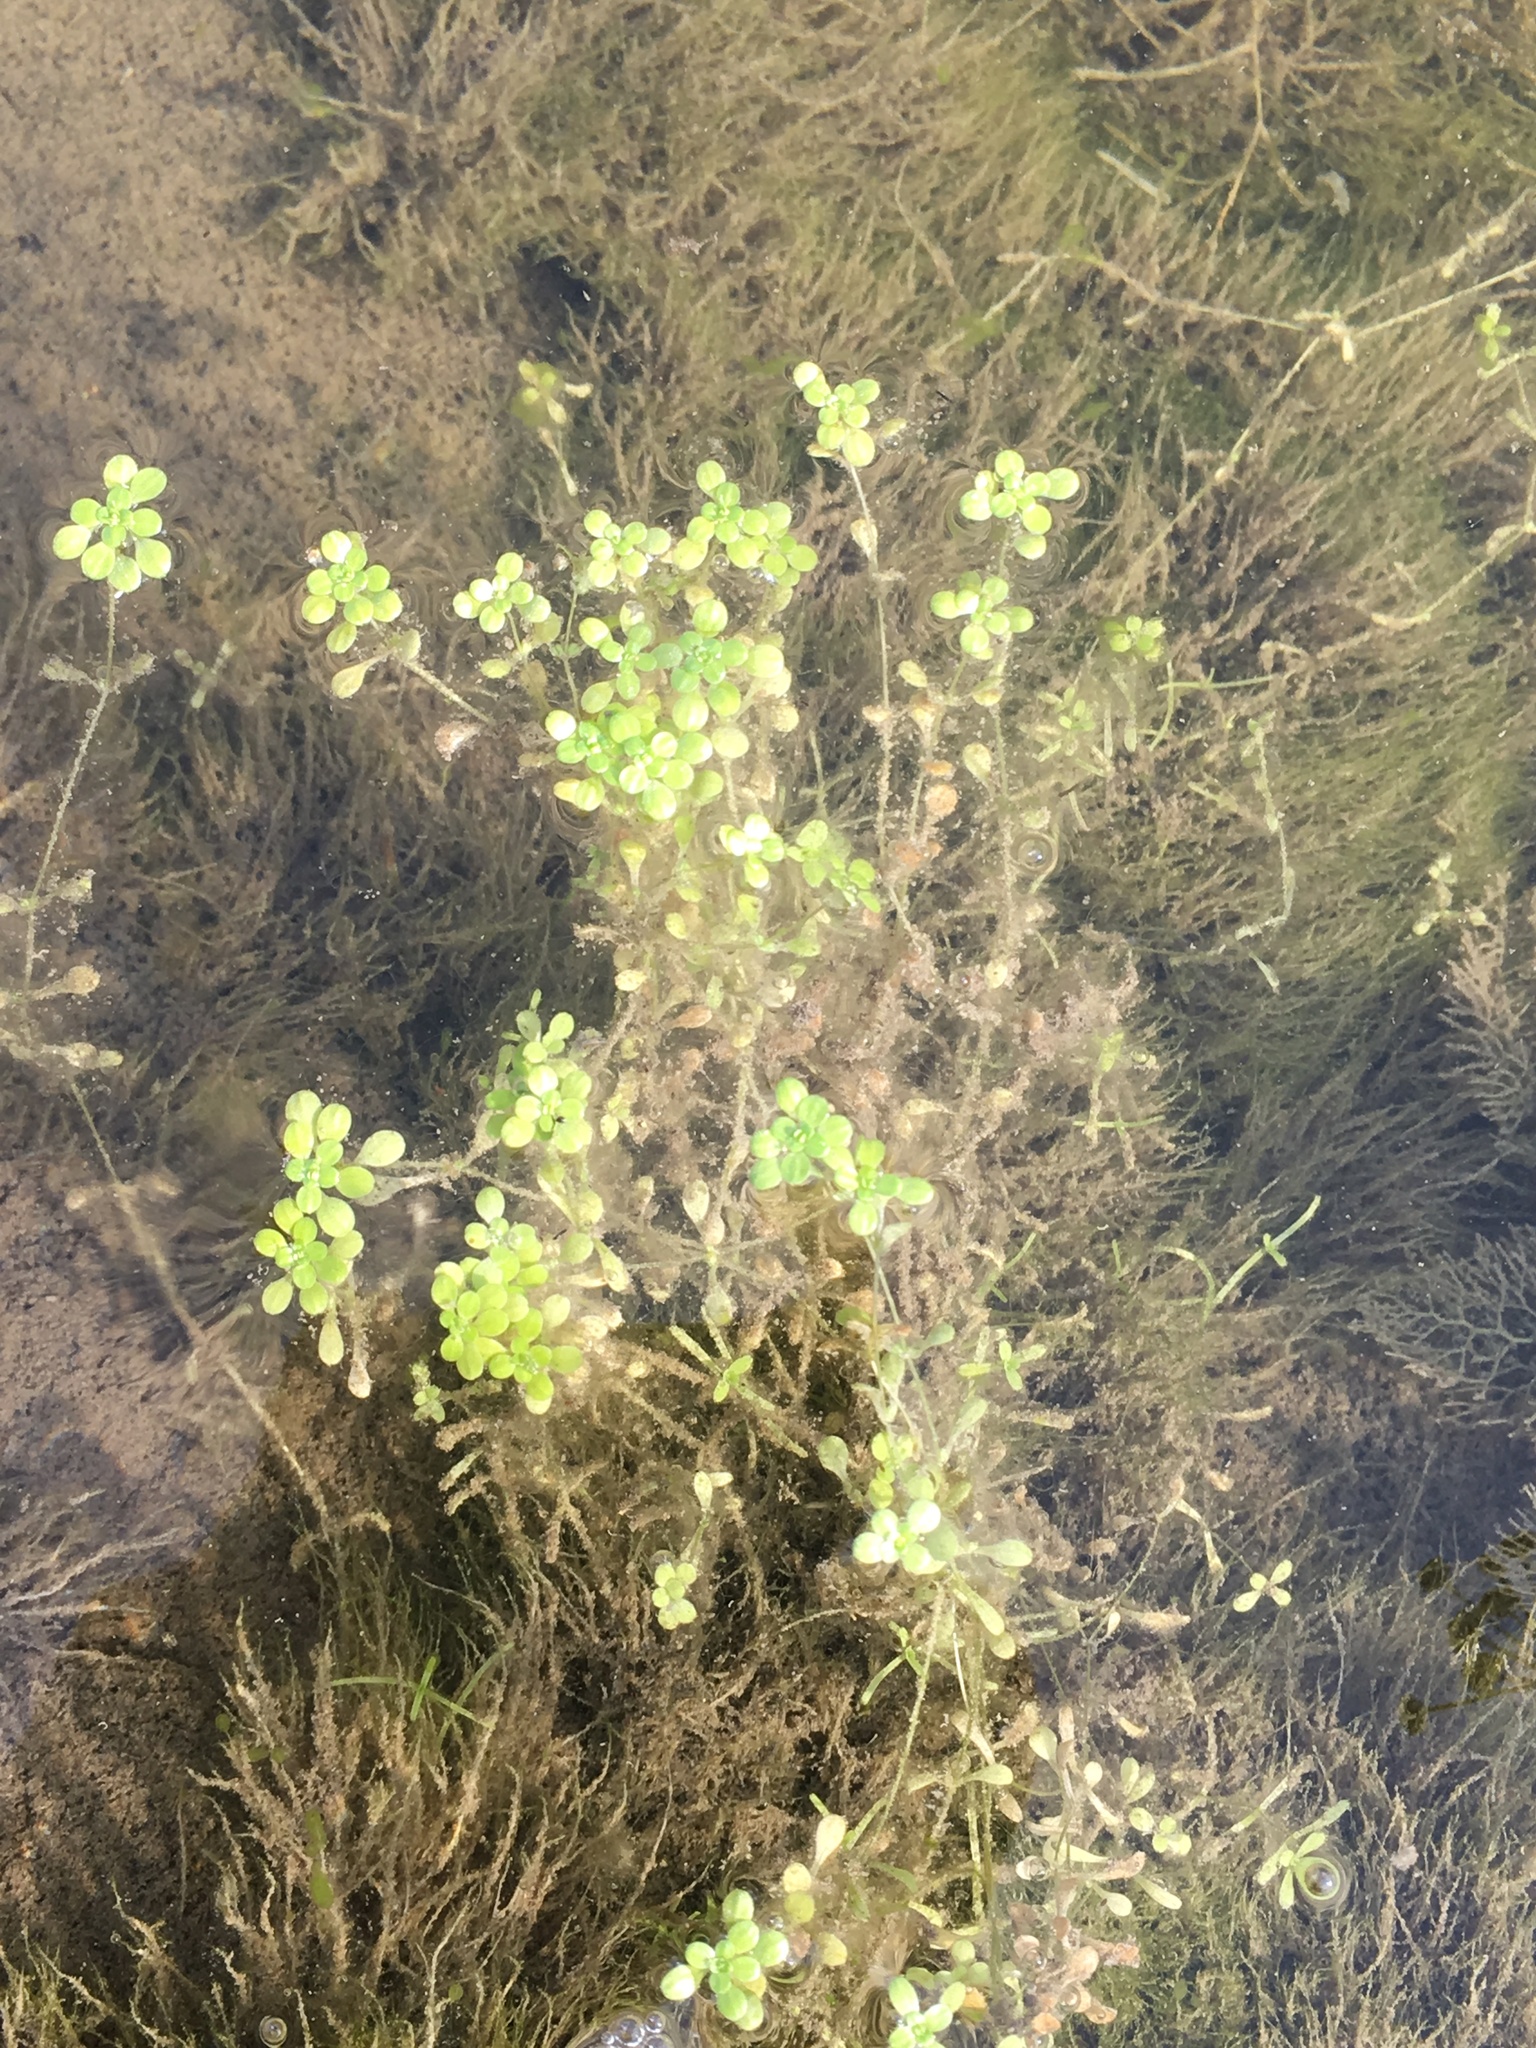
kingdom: Plantae
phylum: Tracheophyta
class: Magnoliopsida
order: Lamiales
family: Plantaginaceae
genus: Callitriche
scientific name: Callitriche palustris
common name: Spring water-starwort
